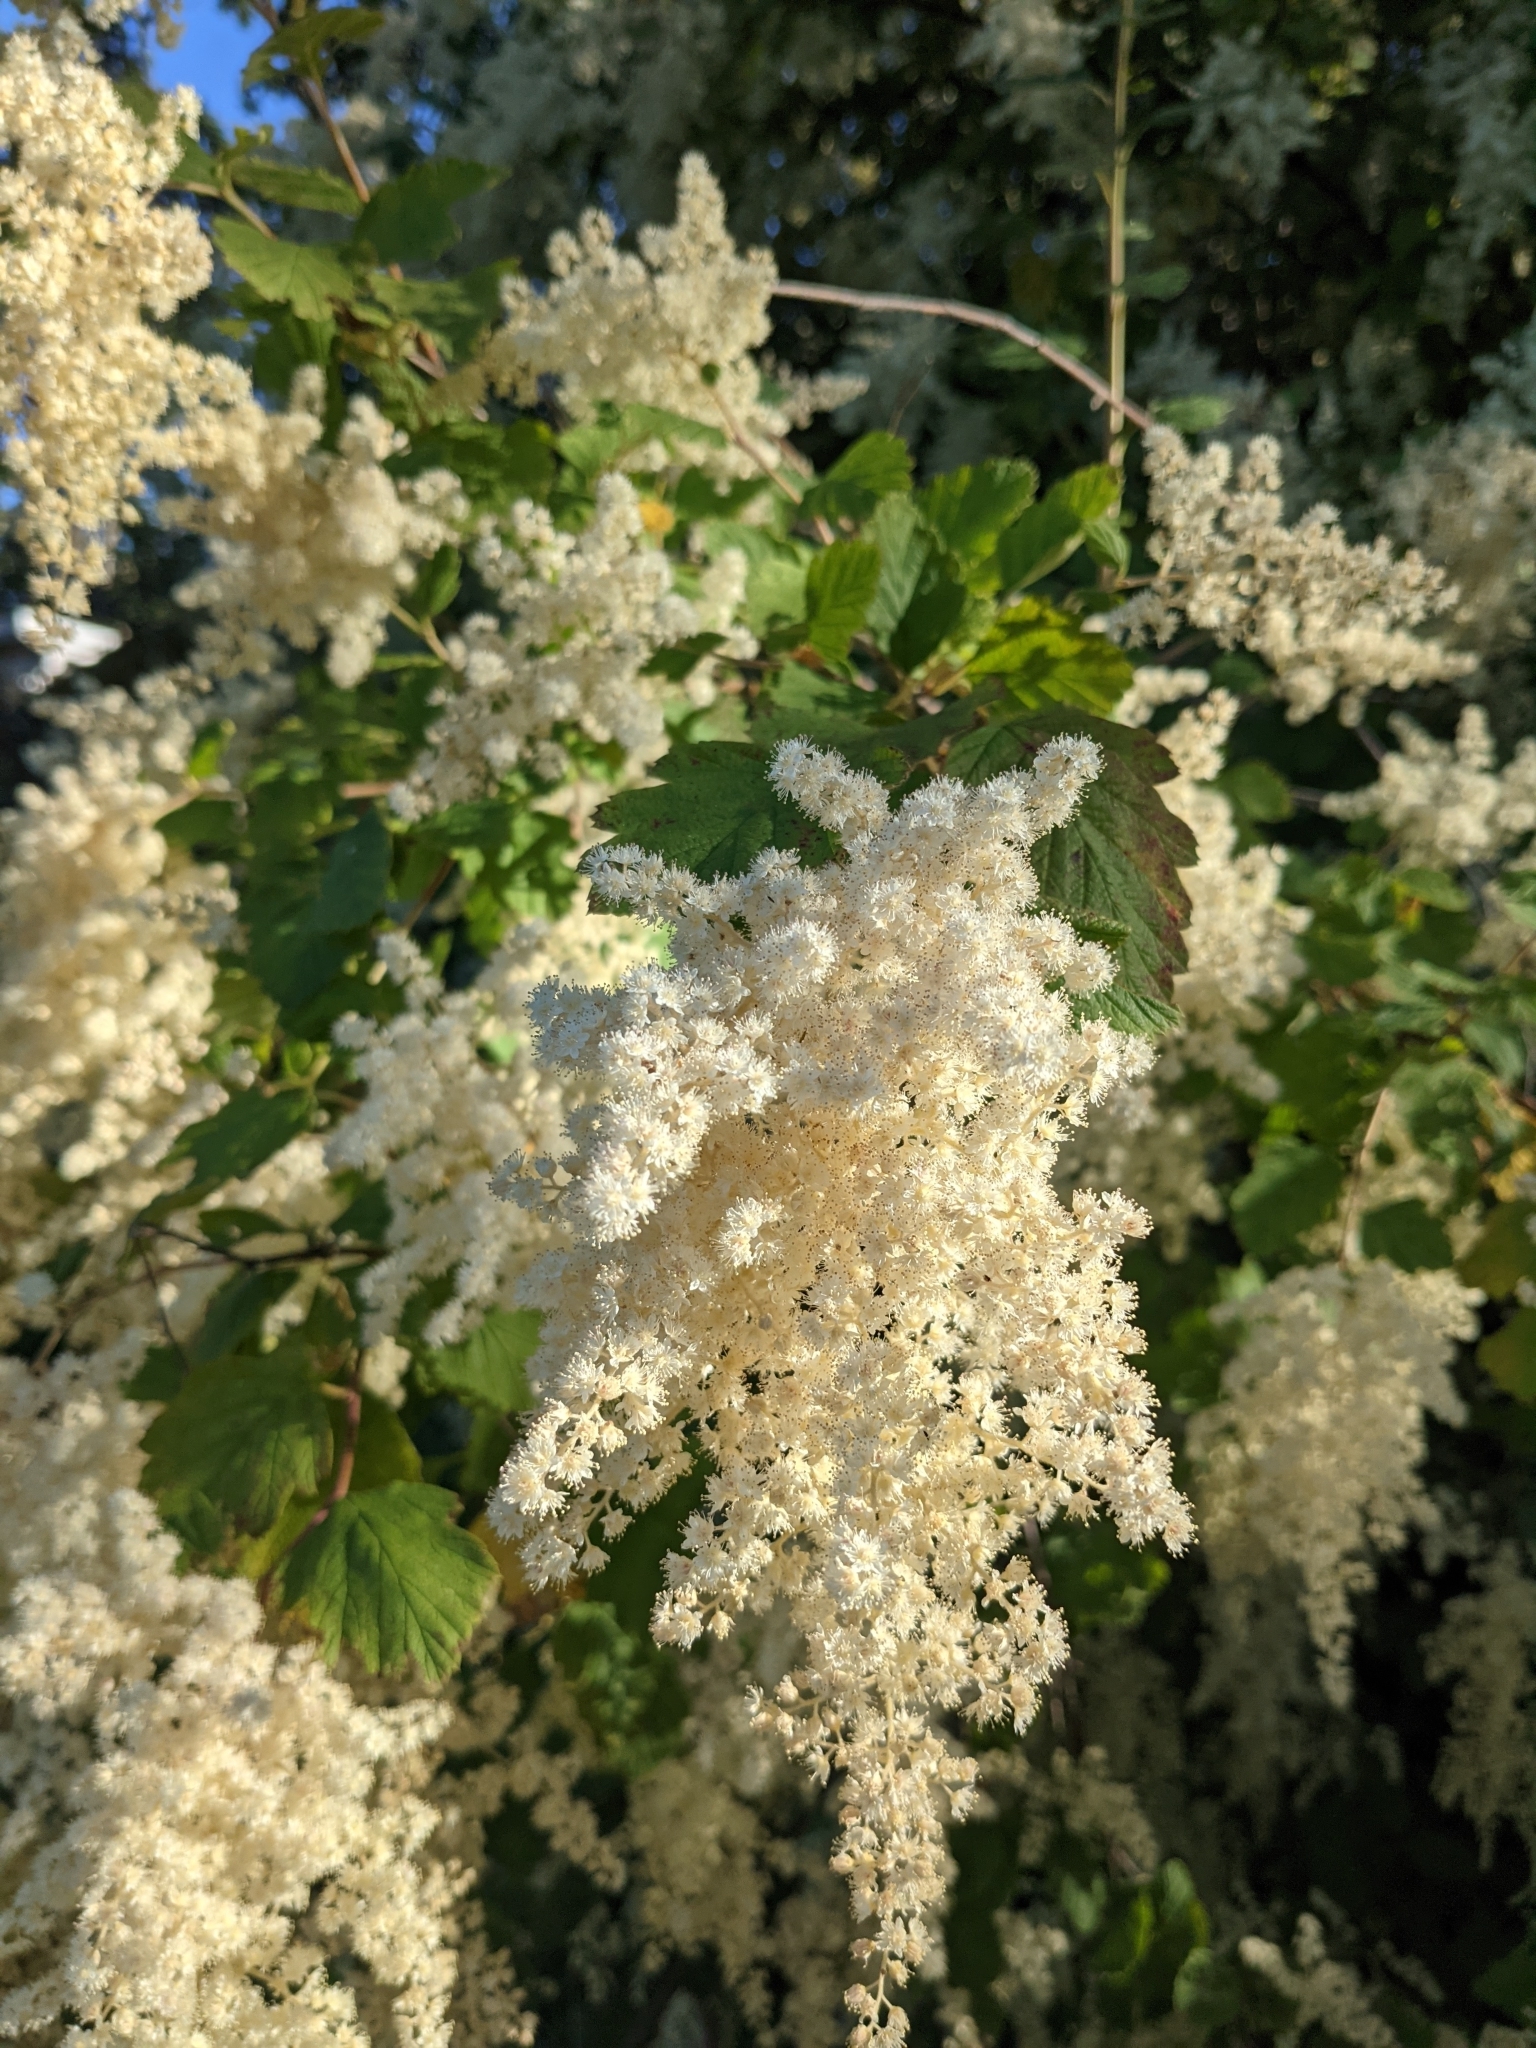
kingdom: Plantae
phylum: Tracheophyta
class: Magnoliopsida
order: Rosales
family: Rosaceae
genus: Holodiscus
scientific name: Holodiscus discolor
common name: Oceanspray
